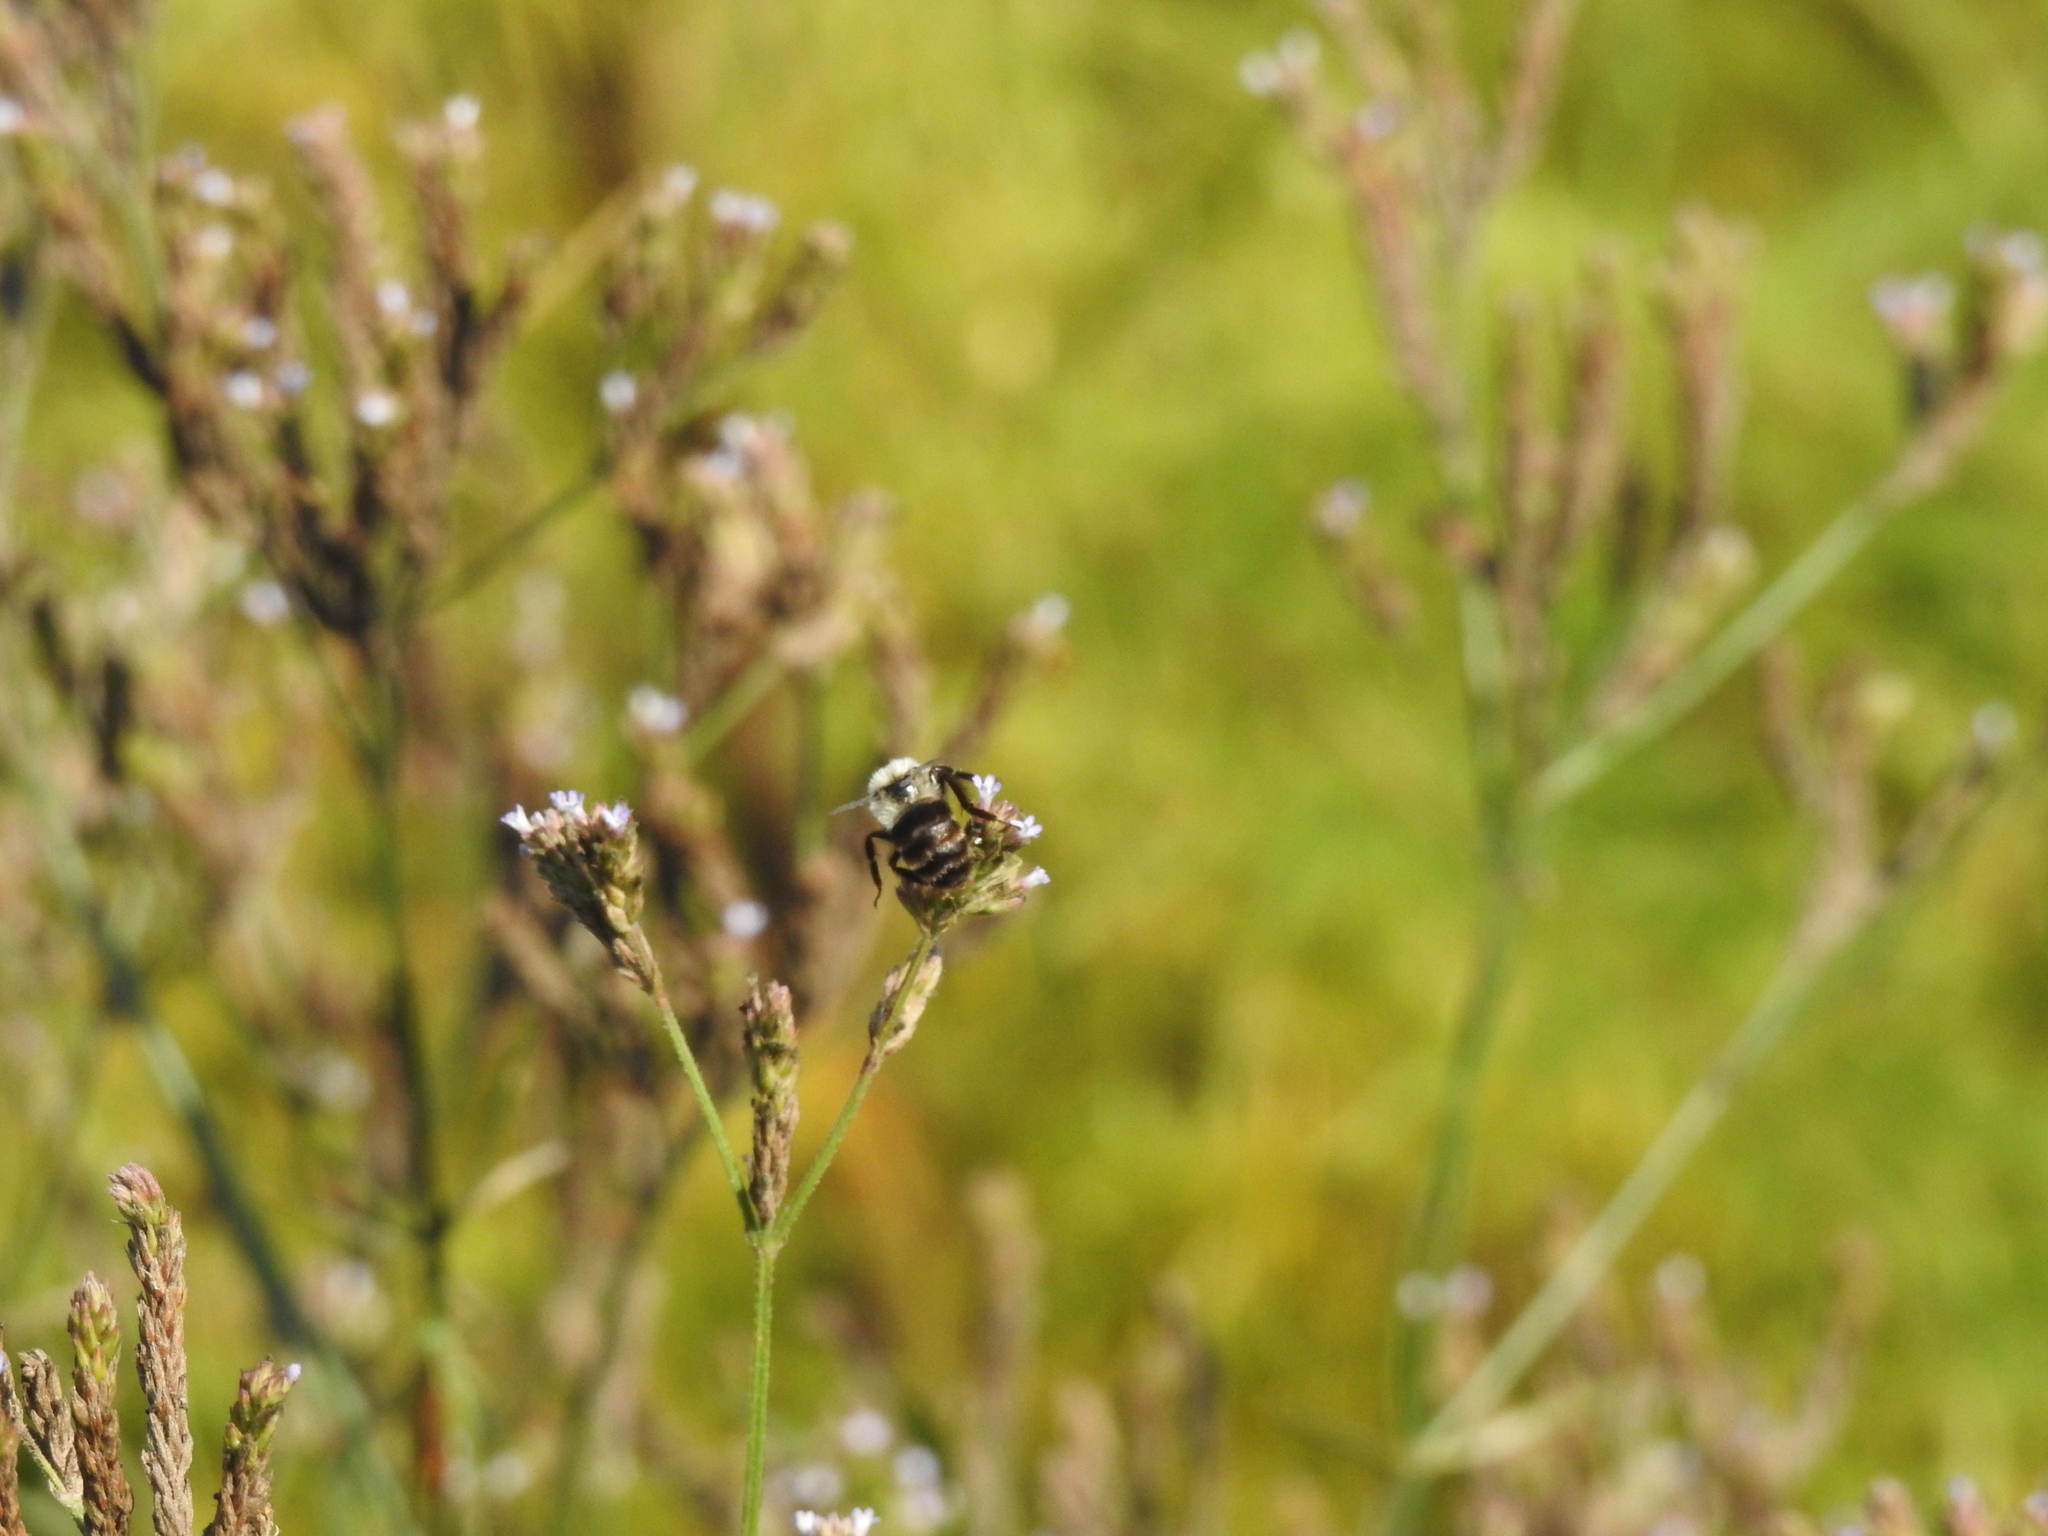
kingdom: Animalia
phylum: Arthropoda
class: Insecta
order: Hymenoptera
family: Apidae
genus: Bombus
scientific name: Bombus impatiens
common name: Common eastern bumble bee
